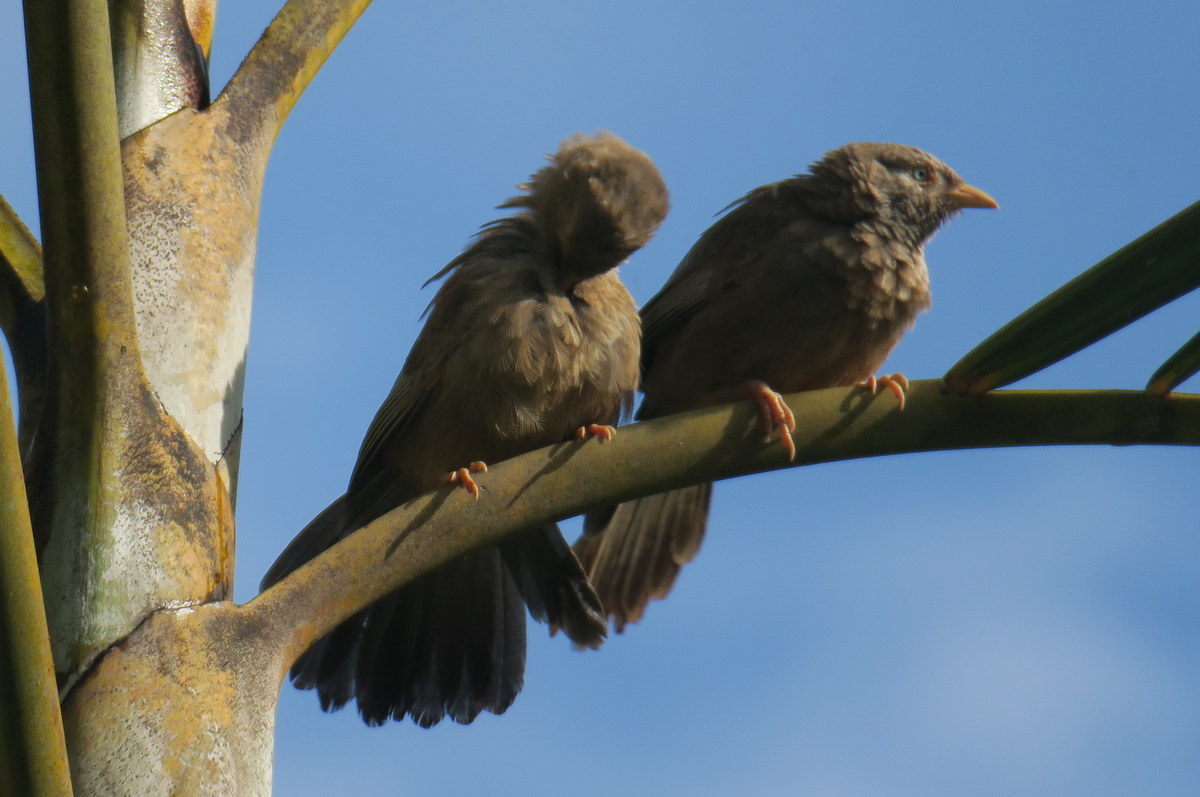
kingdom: Animalia
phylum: Chordata
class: Aves
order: Passeriformes
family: Leiothrichidae
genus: Turdoides
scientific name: Turdoides affinis
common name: Yellow-billed babbler
